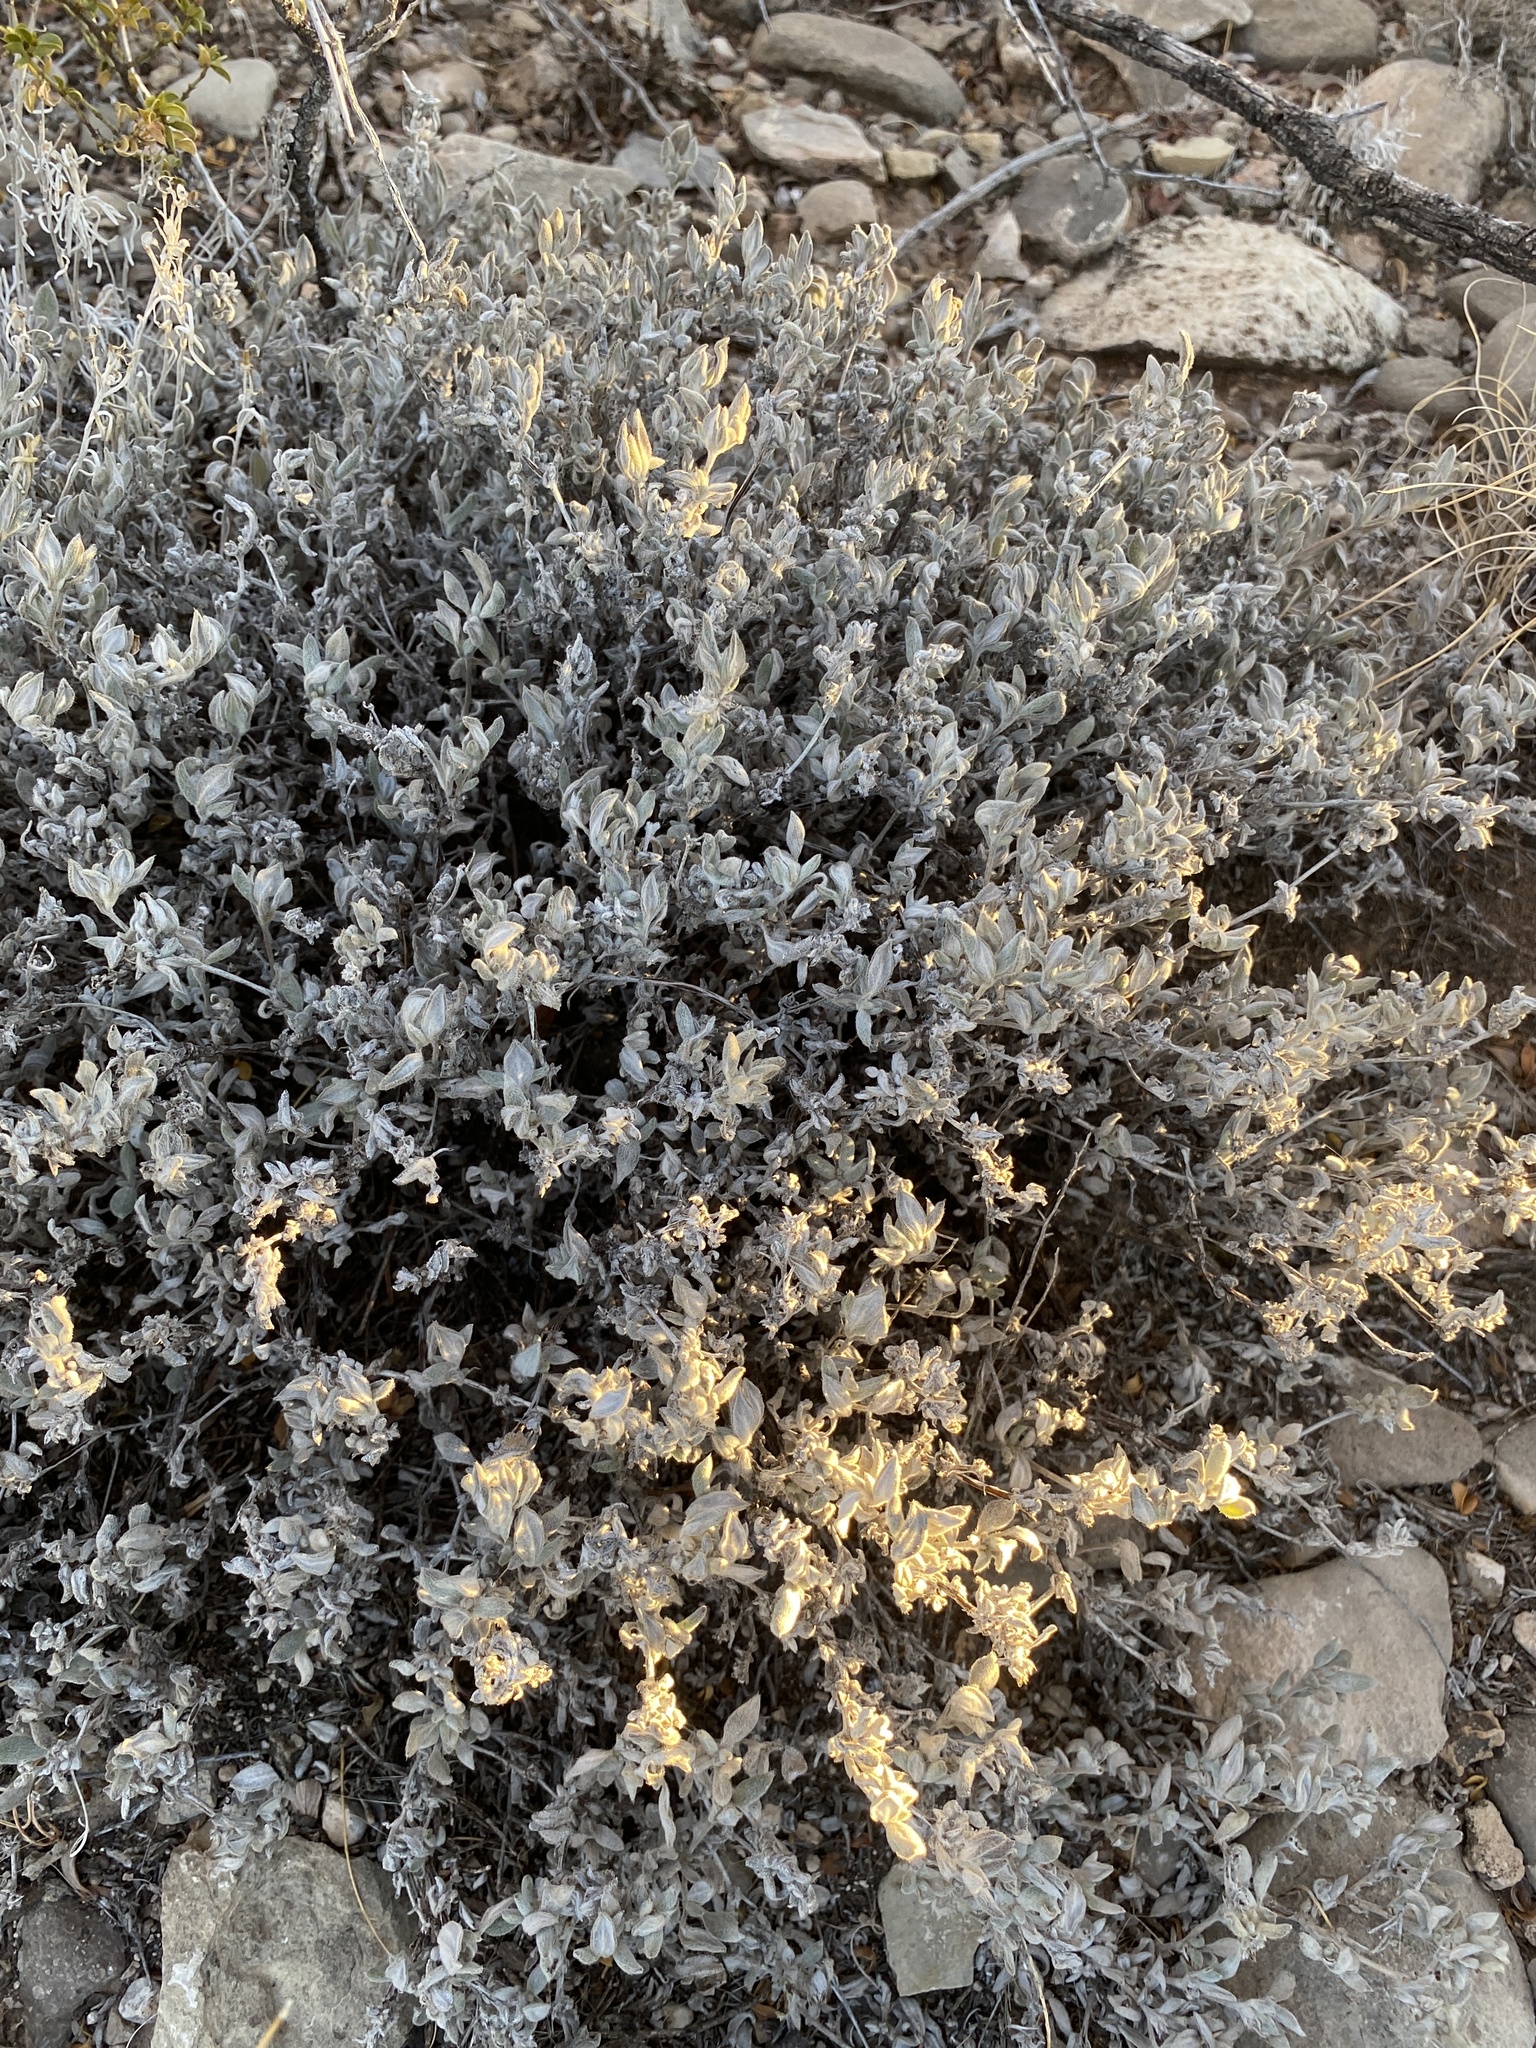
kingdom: Plantae
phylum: Tracheophyta
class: Magnoliopsida
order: Boraginales
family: Ehretiaceae
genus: Tiquilia
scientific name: Tiquilia canescens
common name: Hairy tiquilia
